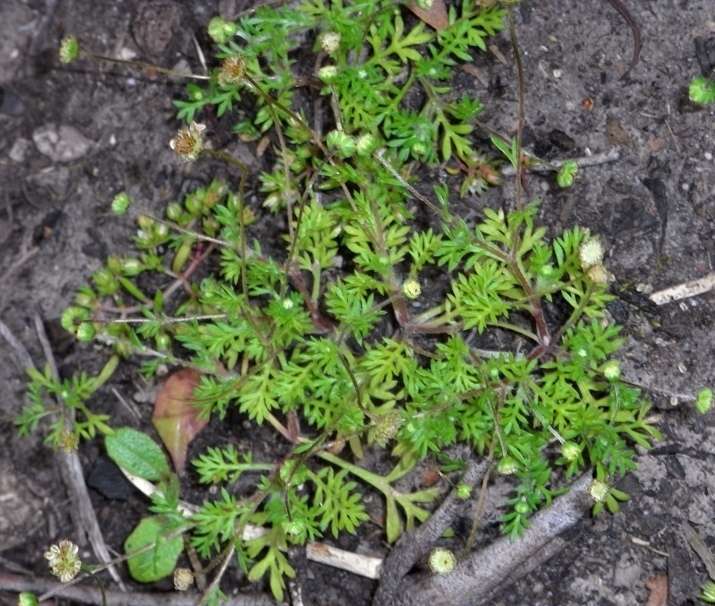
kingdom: Plantae
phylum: Tracheophyta
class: Magnoliopsida
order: Asterales
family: Asteraceae
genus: Cotula
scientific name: Cotula australis
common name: Australian waterbuttons
